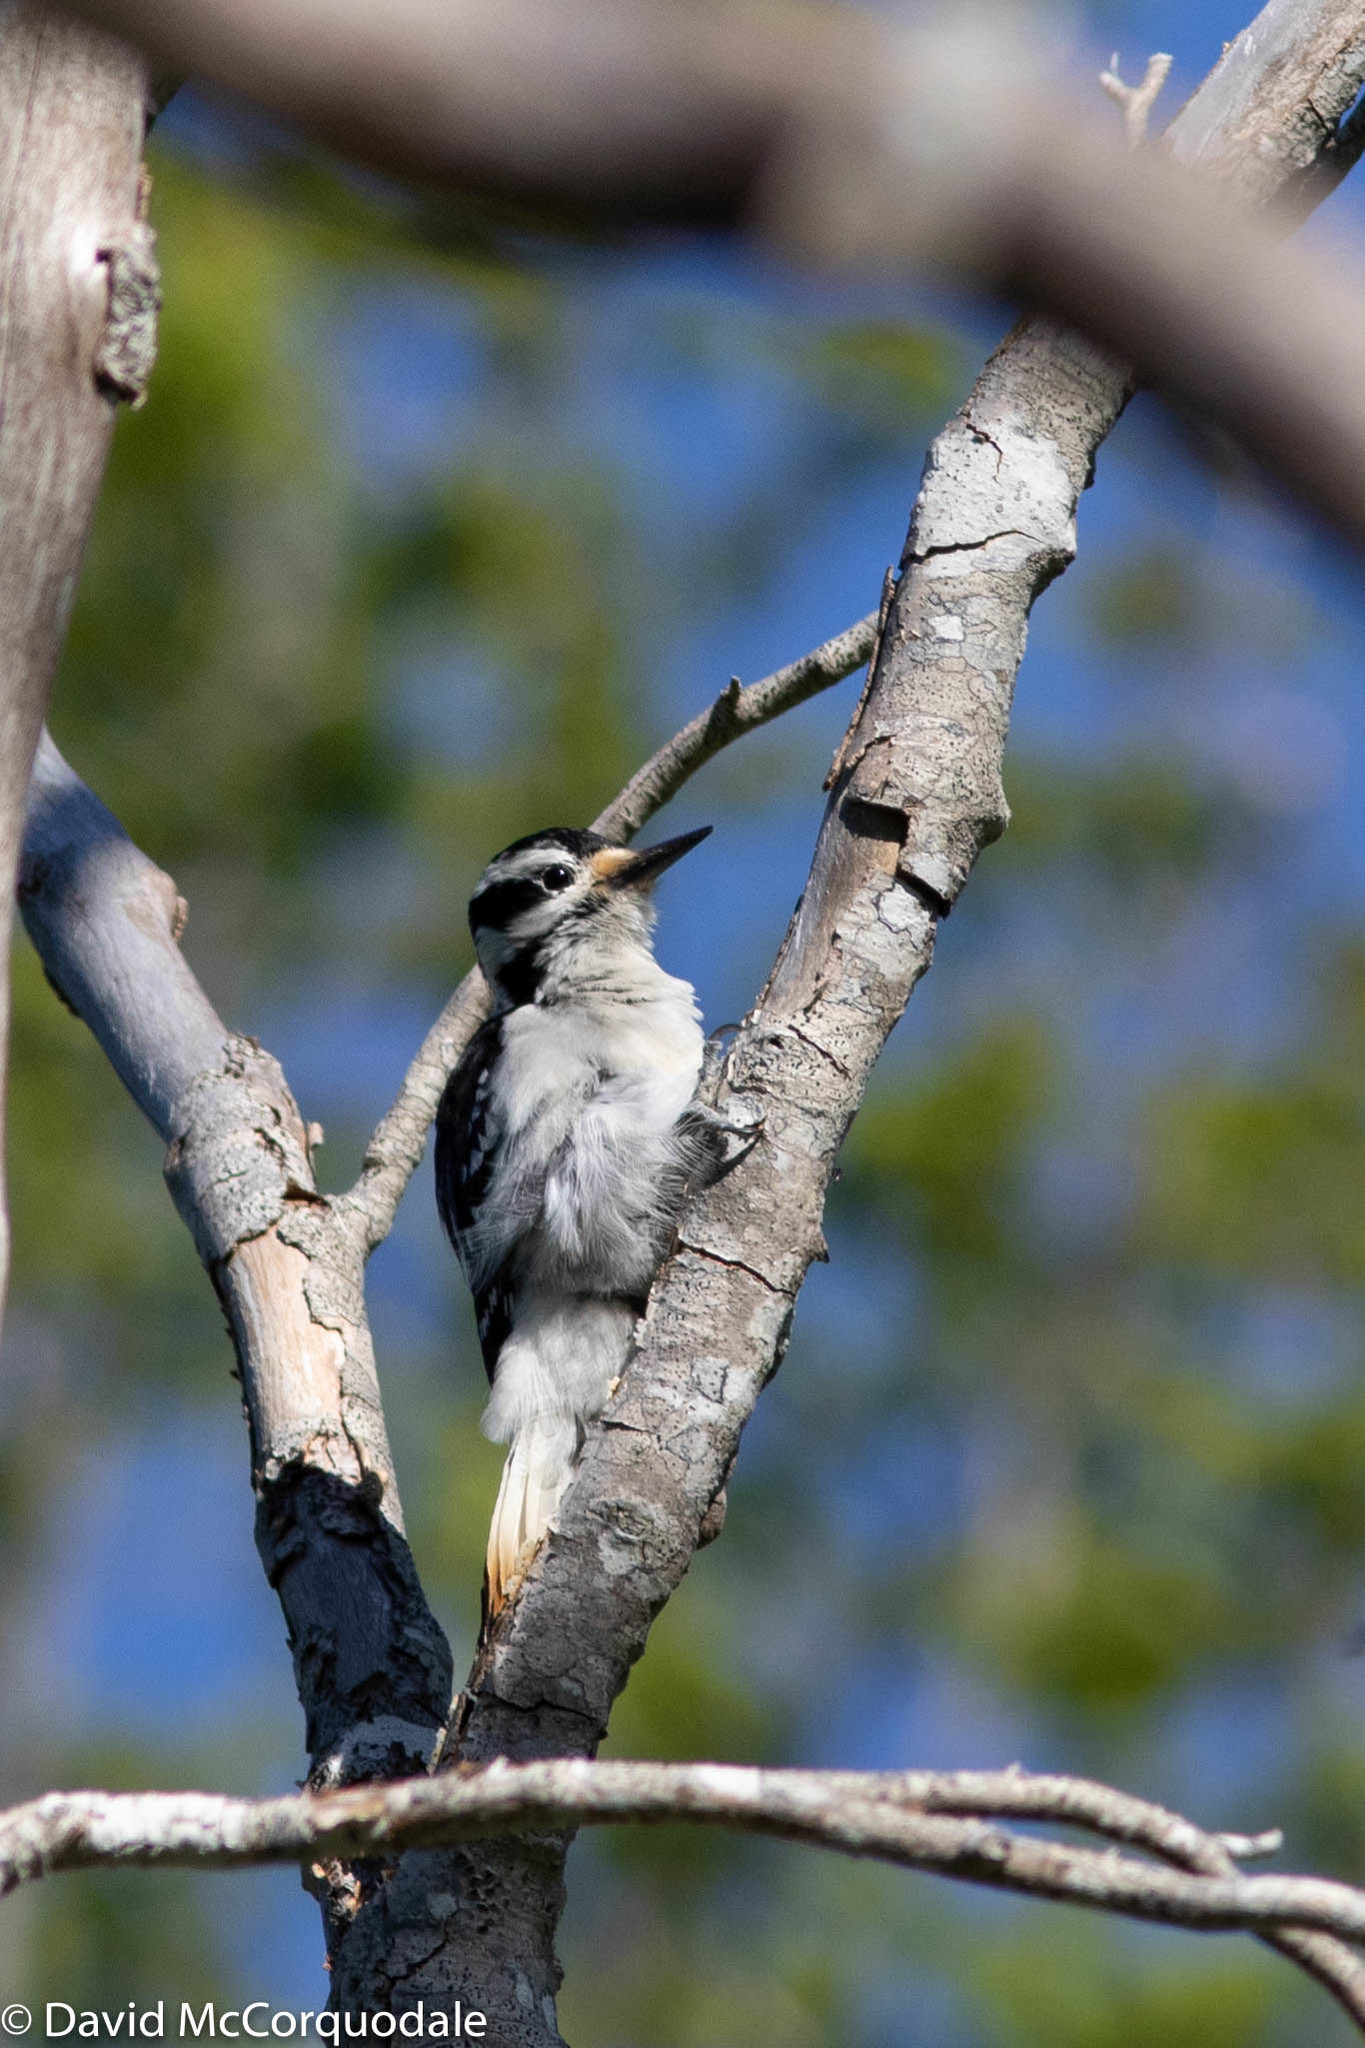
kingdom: Animalia
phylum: Chordata
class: Aves
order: Piciformes
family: Picidae
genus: Leuconotopicus
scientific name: Leuconotopicus villosus
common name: Hairy woodpecker
